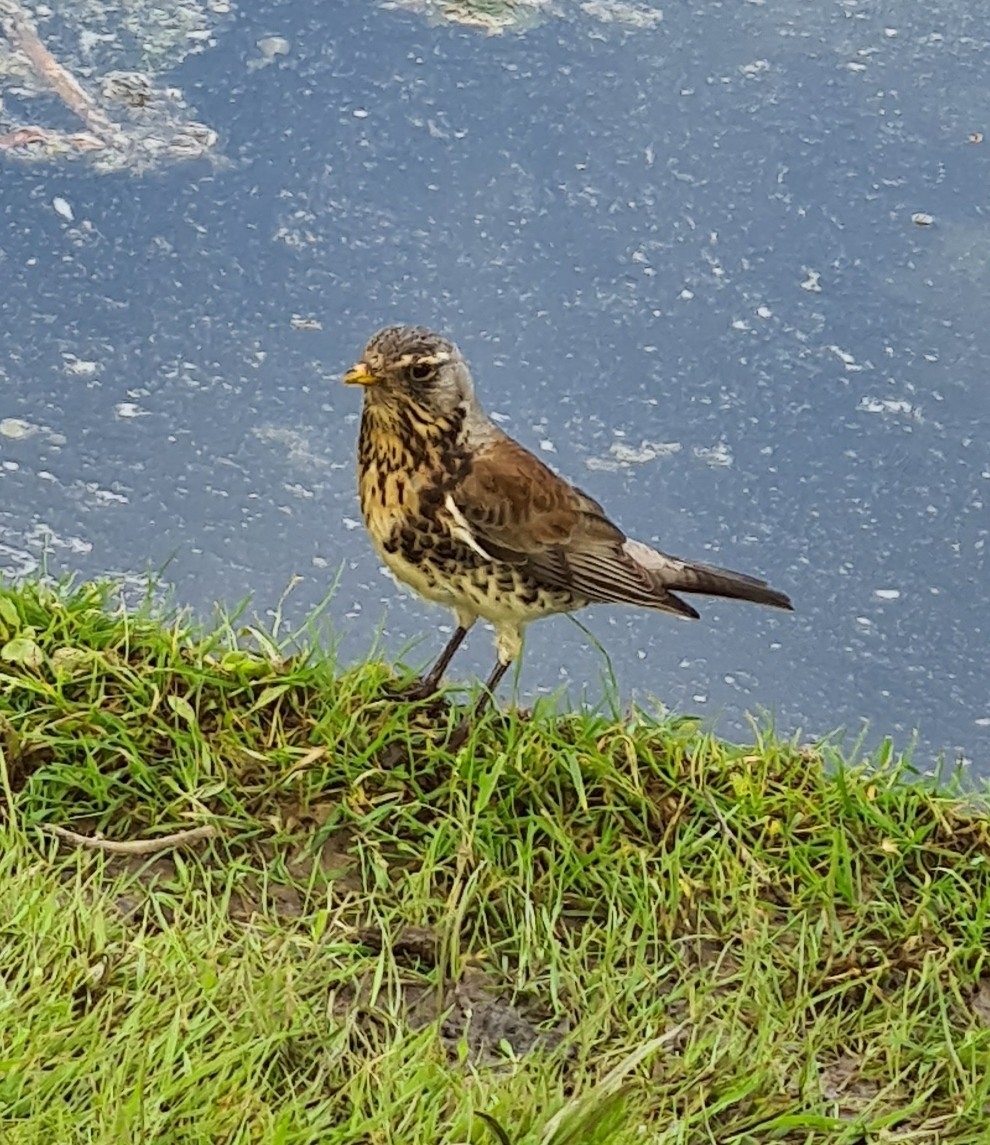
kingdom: Animalia
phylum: Chordata
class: Aves
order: Passeriformes
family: Turdidae
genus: Turdus
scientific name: Turdus pilaris
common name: Fieldfare
